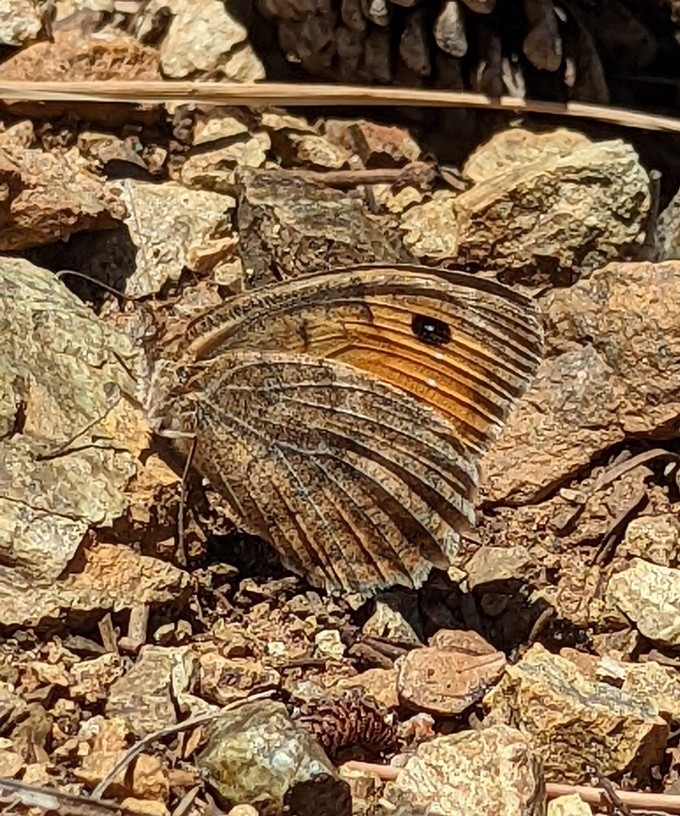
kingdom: Animalia
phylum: Arthropoda
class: Insecta
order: Lepidoptera
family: Nymphalidae
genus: Pseudochazara
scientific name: Pseudochazara mniszechii
